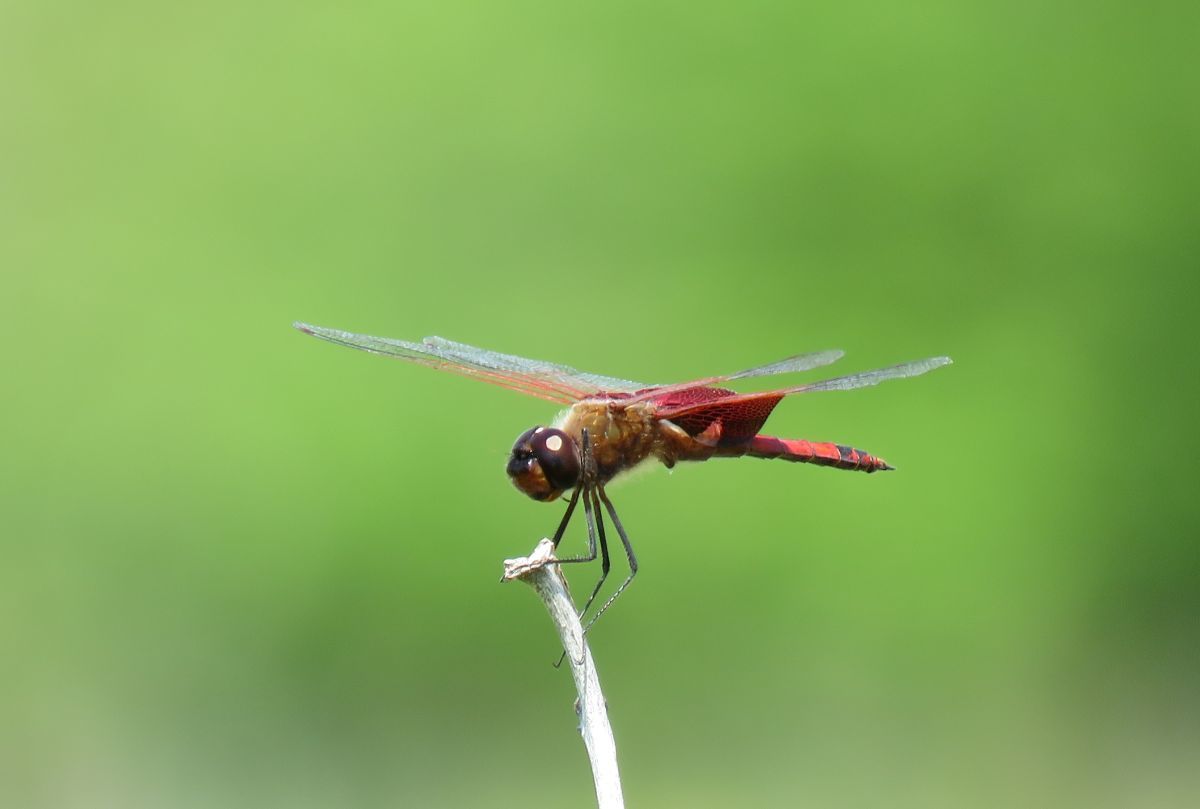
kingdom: Animalia
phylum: Arthropoda
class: Insecta
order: Odonata
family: Libellulidae
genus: Tramea
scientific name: Tramea carolina
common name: Carolina saddlebags
